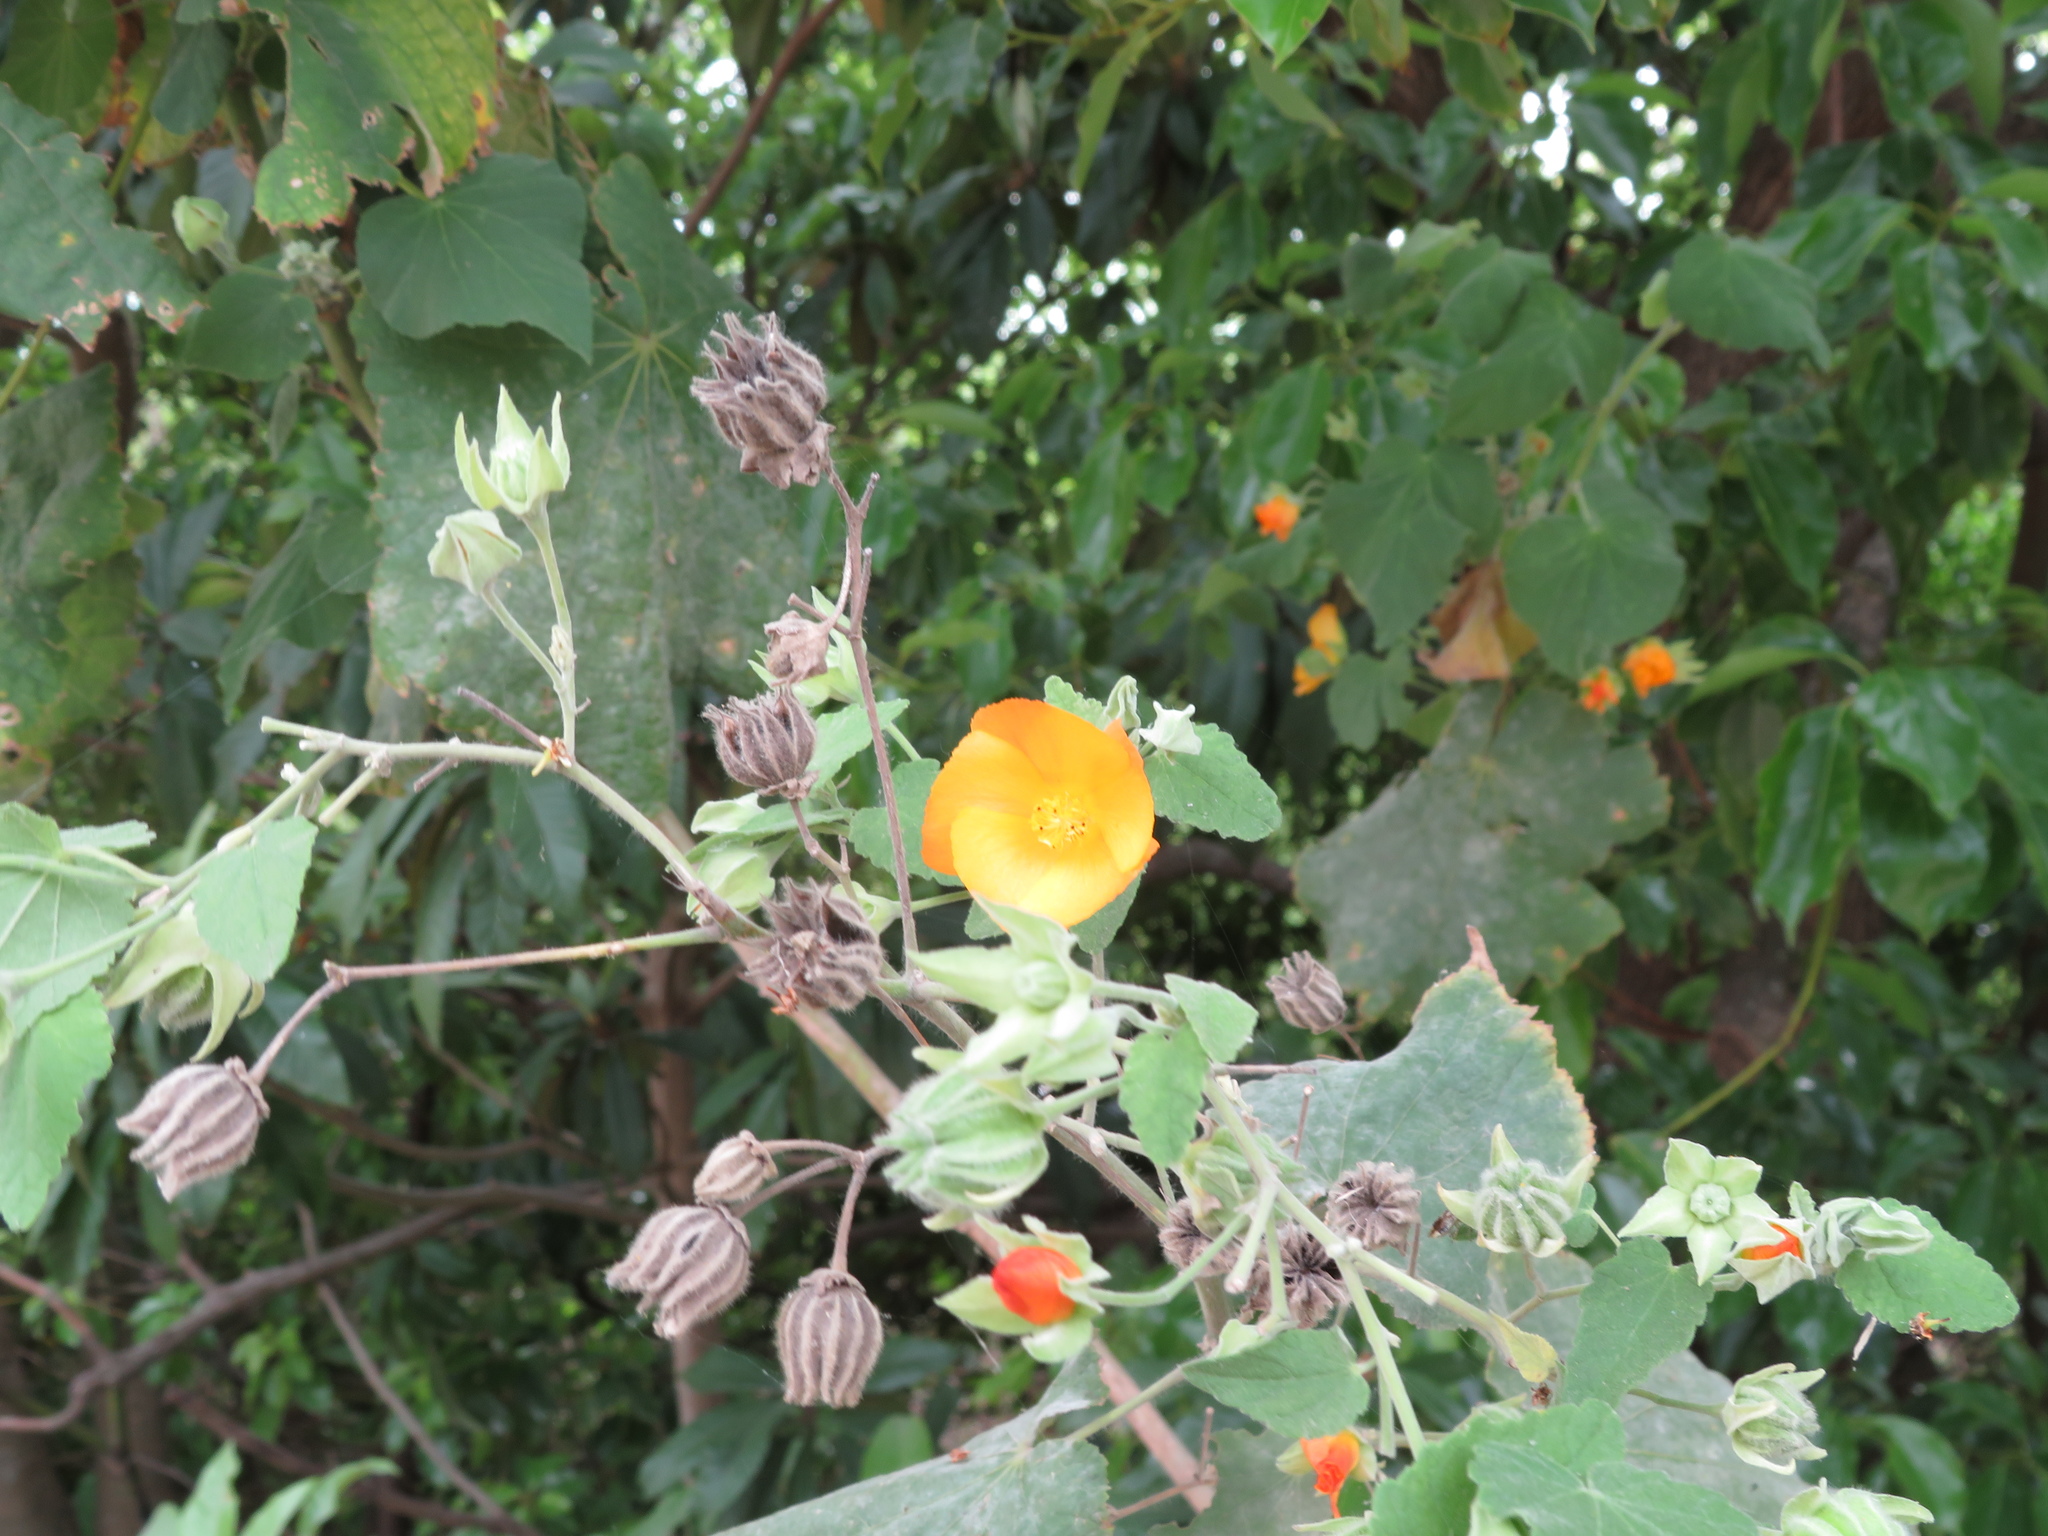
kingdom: Plantae
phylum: Tracheophyta
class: Magnoliopsida
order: Malvales
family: Malvaceae
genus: Abutilon
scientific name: Abutilon grandifolium
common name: Hairy abutilon
